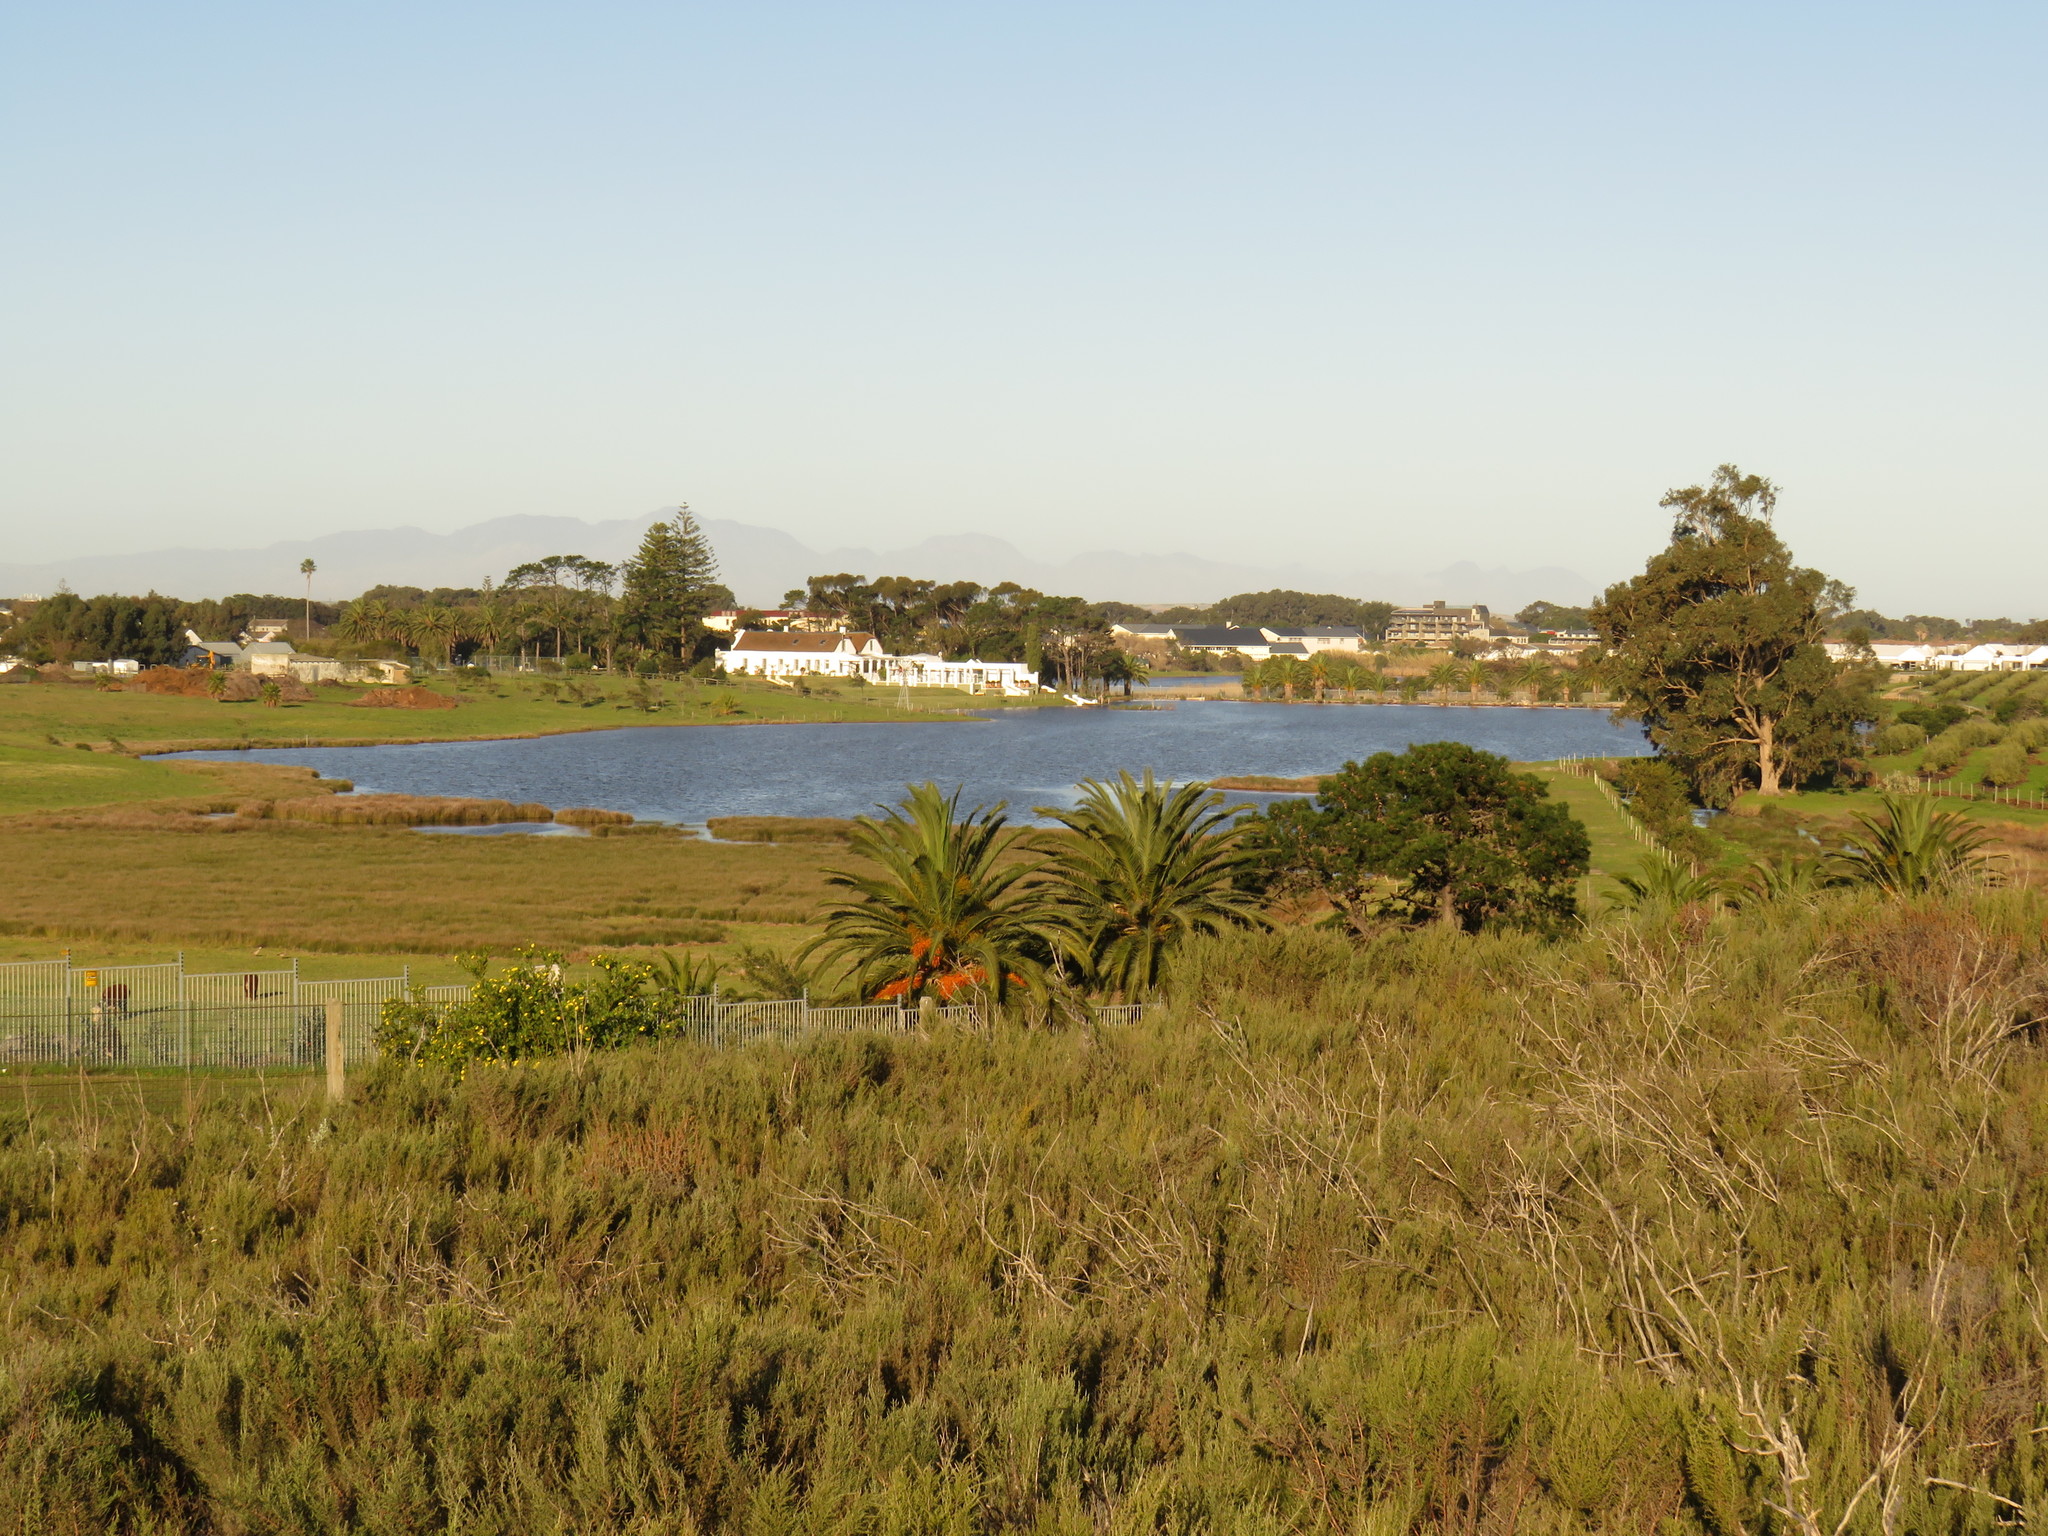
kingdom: Plantae
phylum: Tracheophyta
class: Magnoliopsida
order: Asterales
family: Asteraceae
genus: Dicerothamnus
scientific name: Dicerothamnus rhinocerotis
